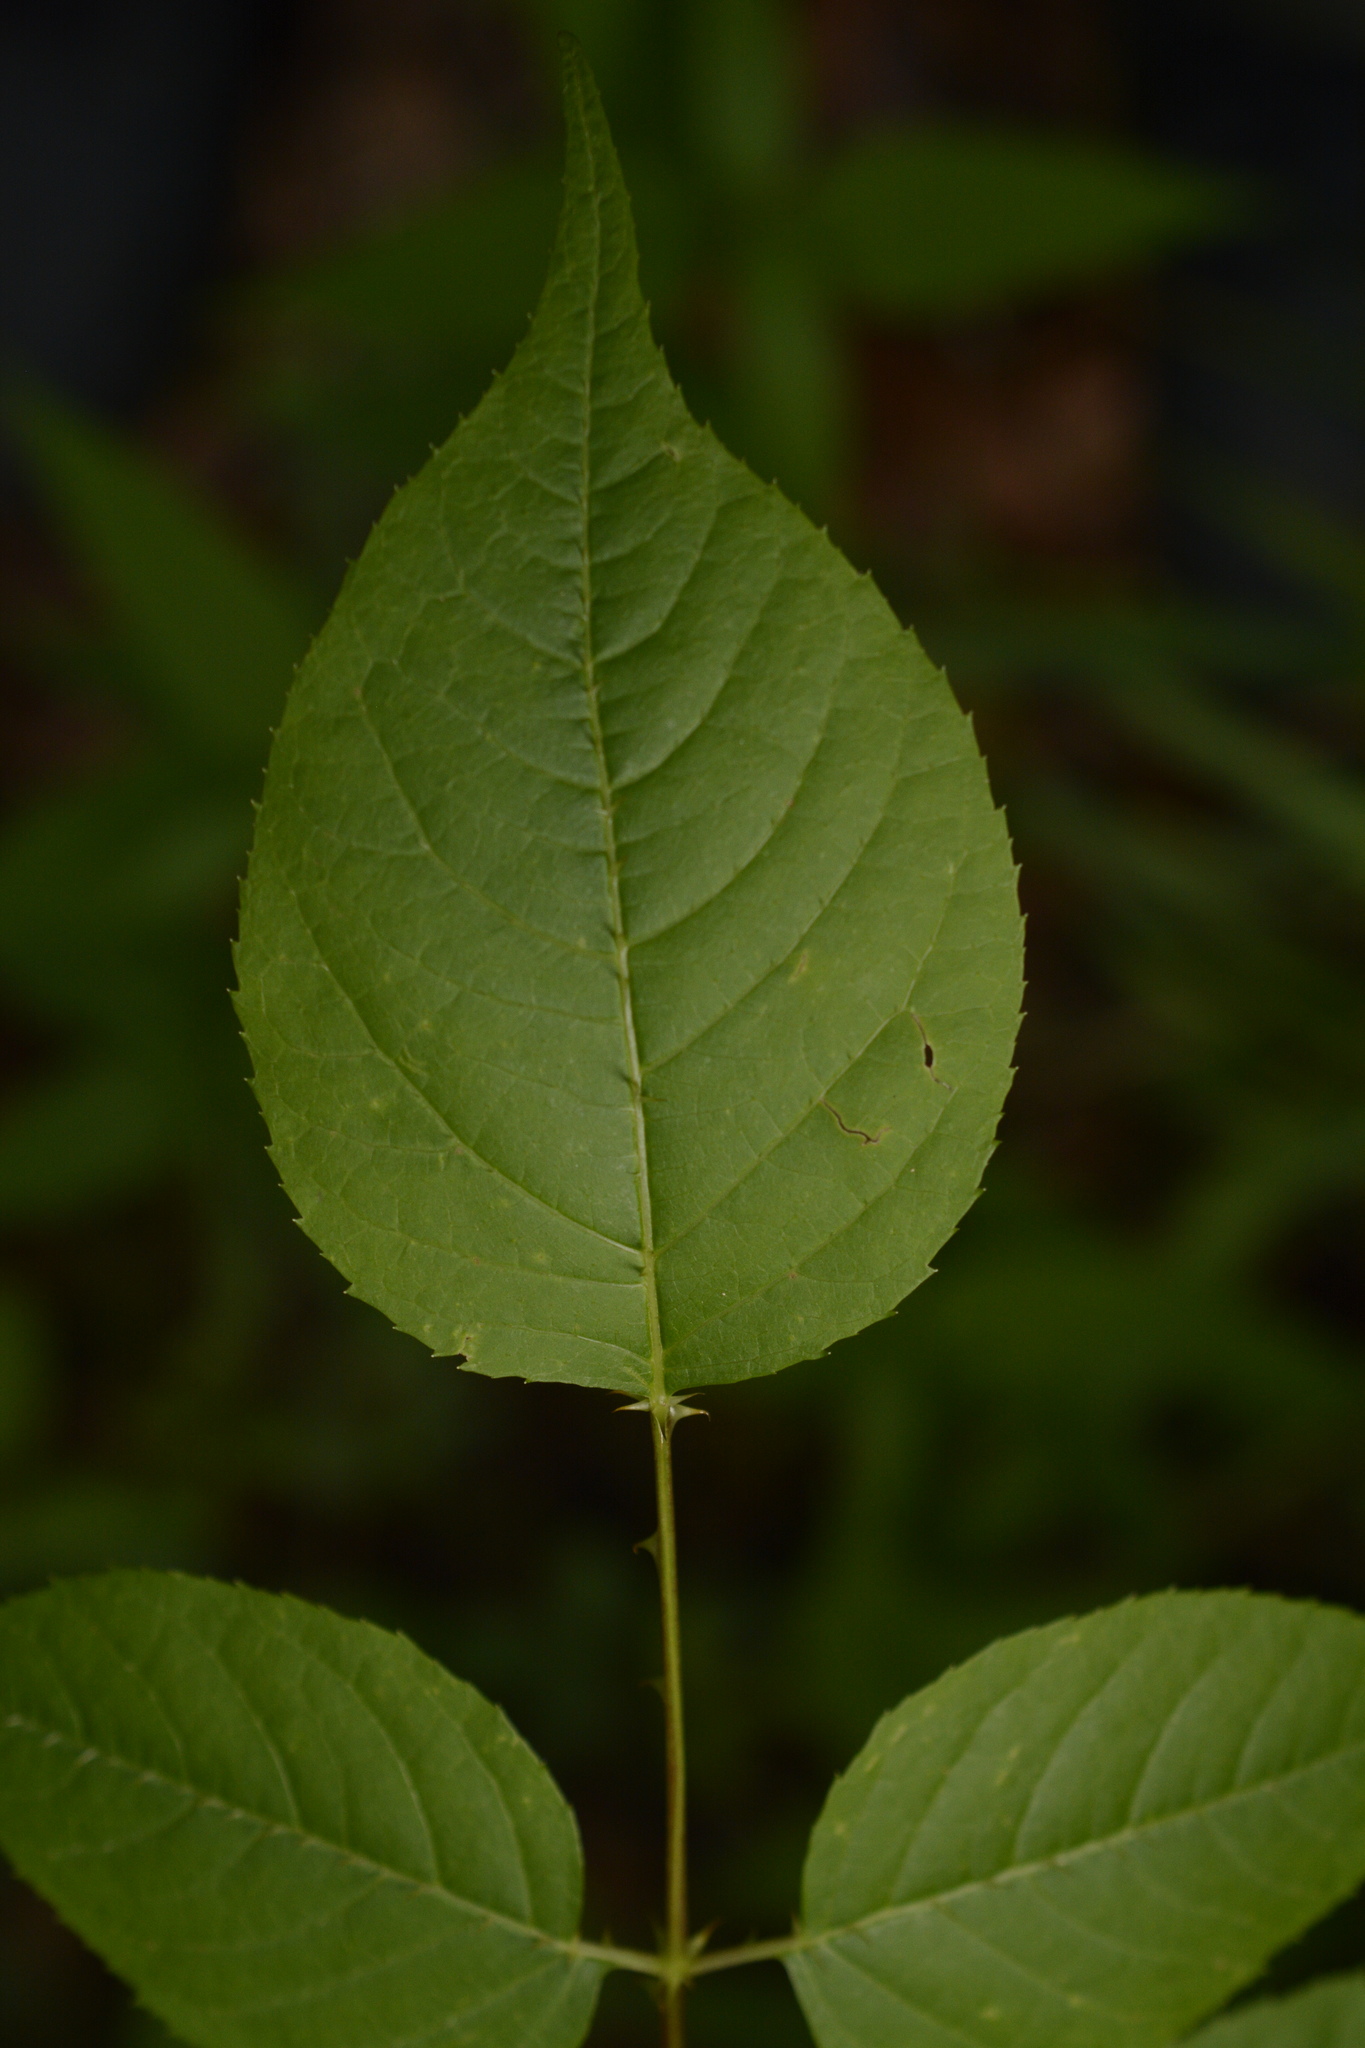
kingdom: Plantae
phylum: Tracheophyta
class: Magnoliopsida
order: Apiales
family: Araliaceae
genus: Aralia
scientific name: Aralia spinosa
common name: Hercules'-club
